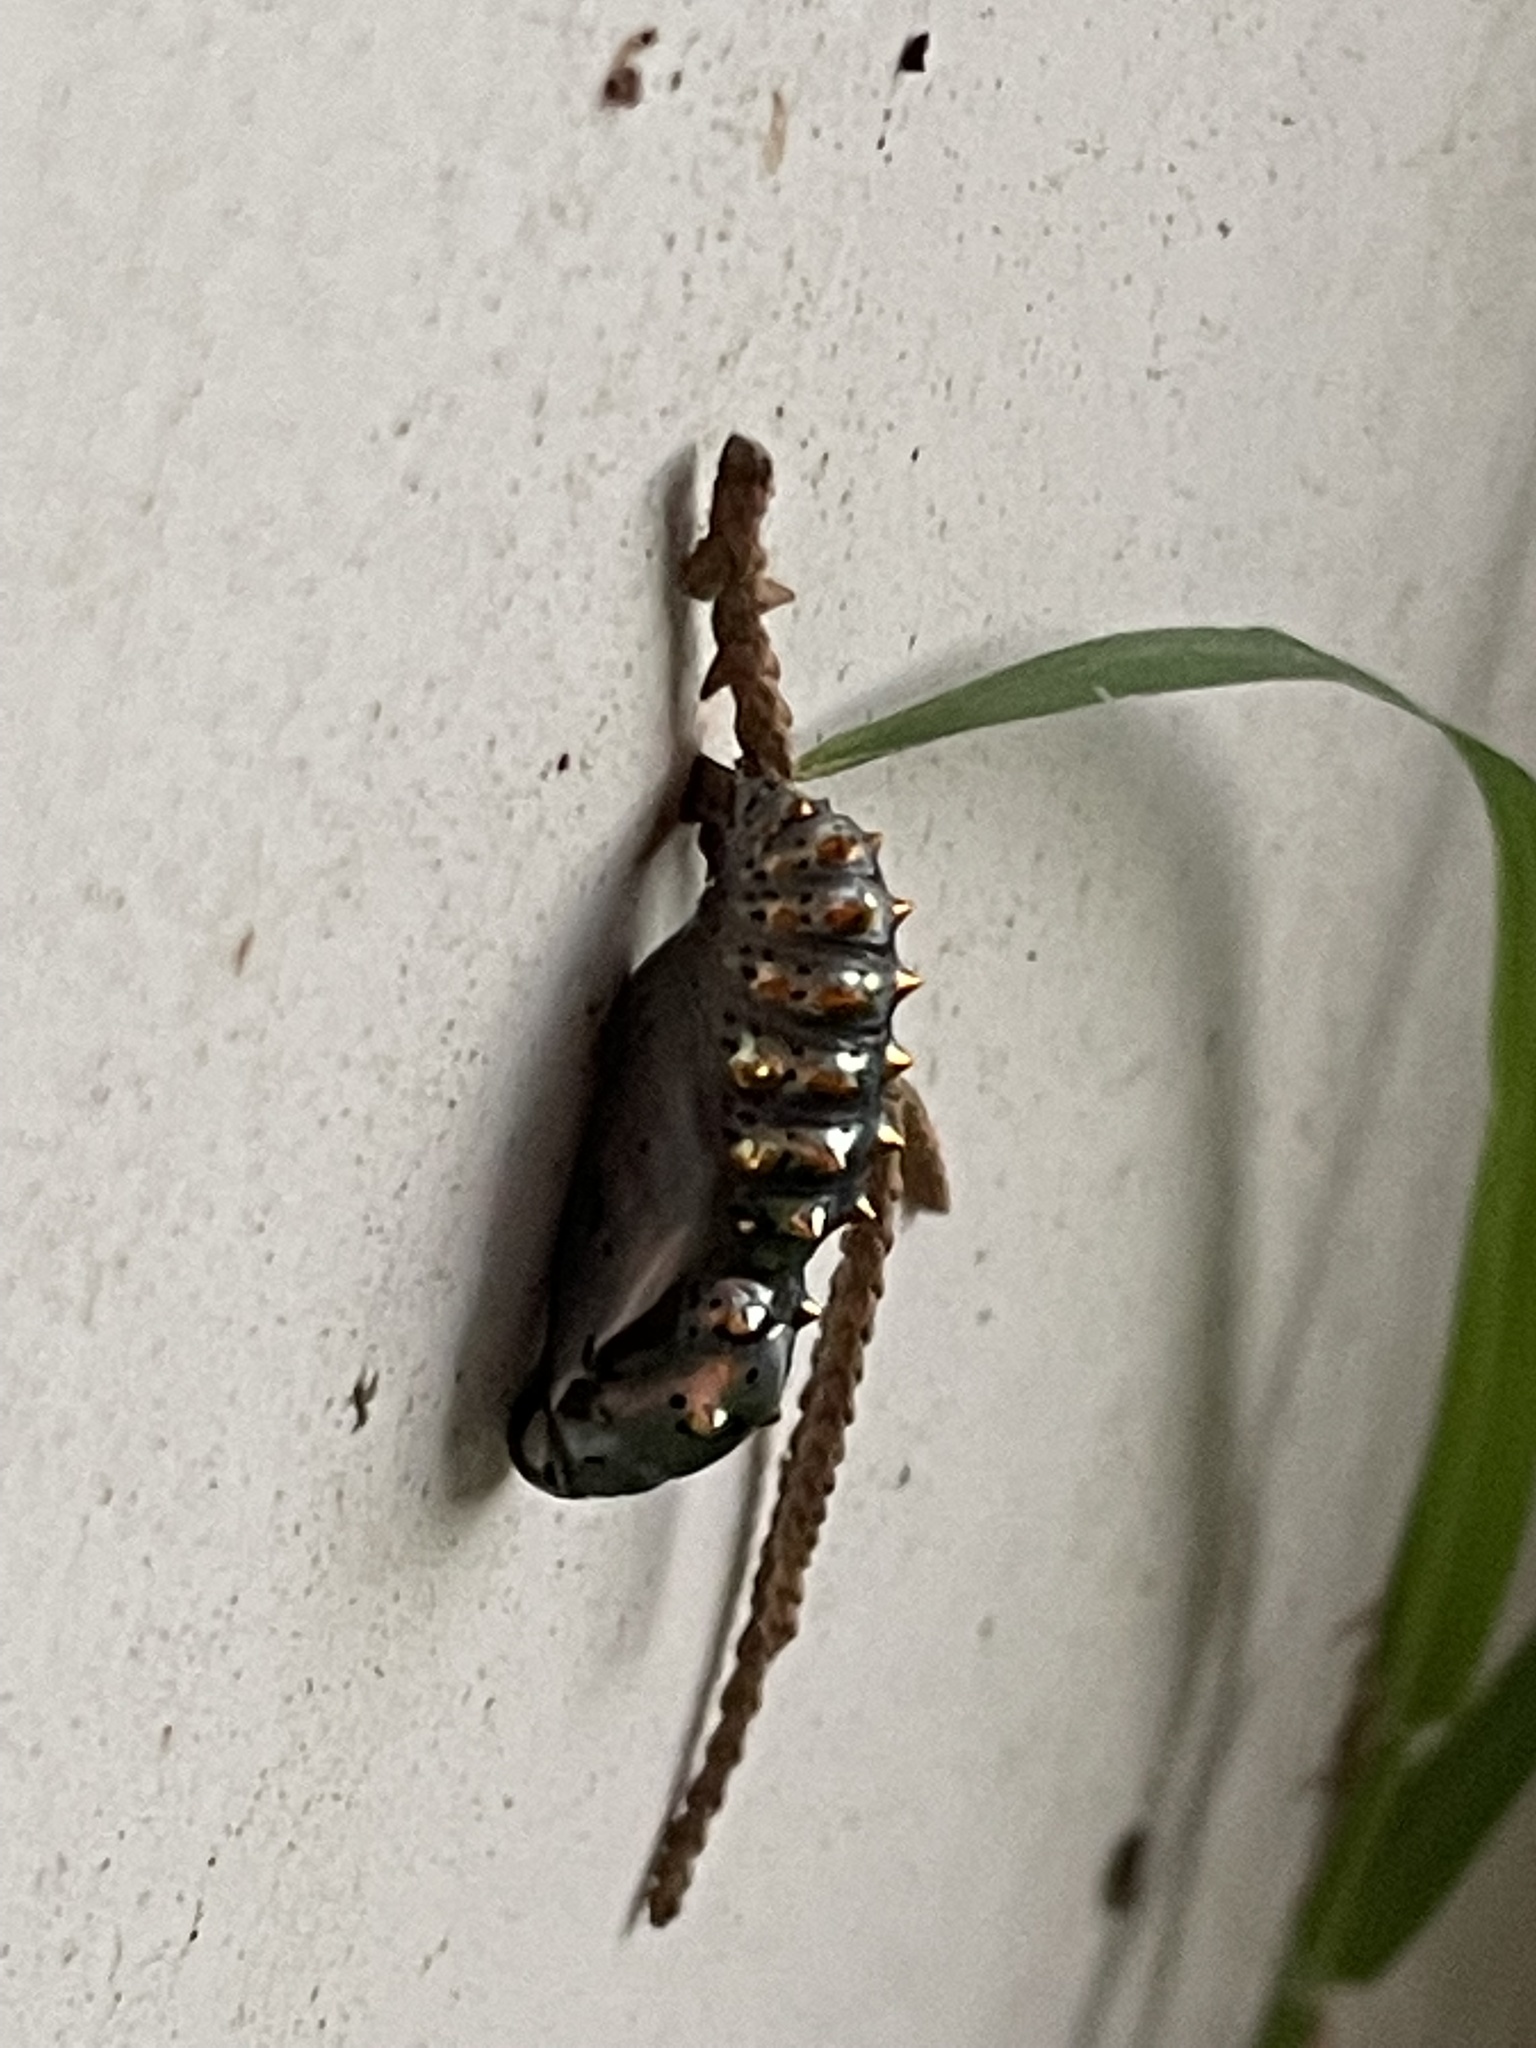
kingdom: Animalia
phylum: Arthropoda
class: Insecta
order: Lepidoptera
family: Nymphalidae
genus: Euptoieta
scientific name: Euptoieta claudia
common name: Variegated fritillary
